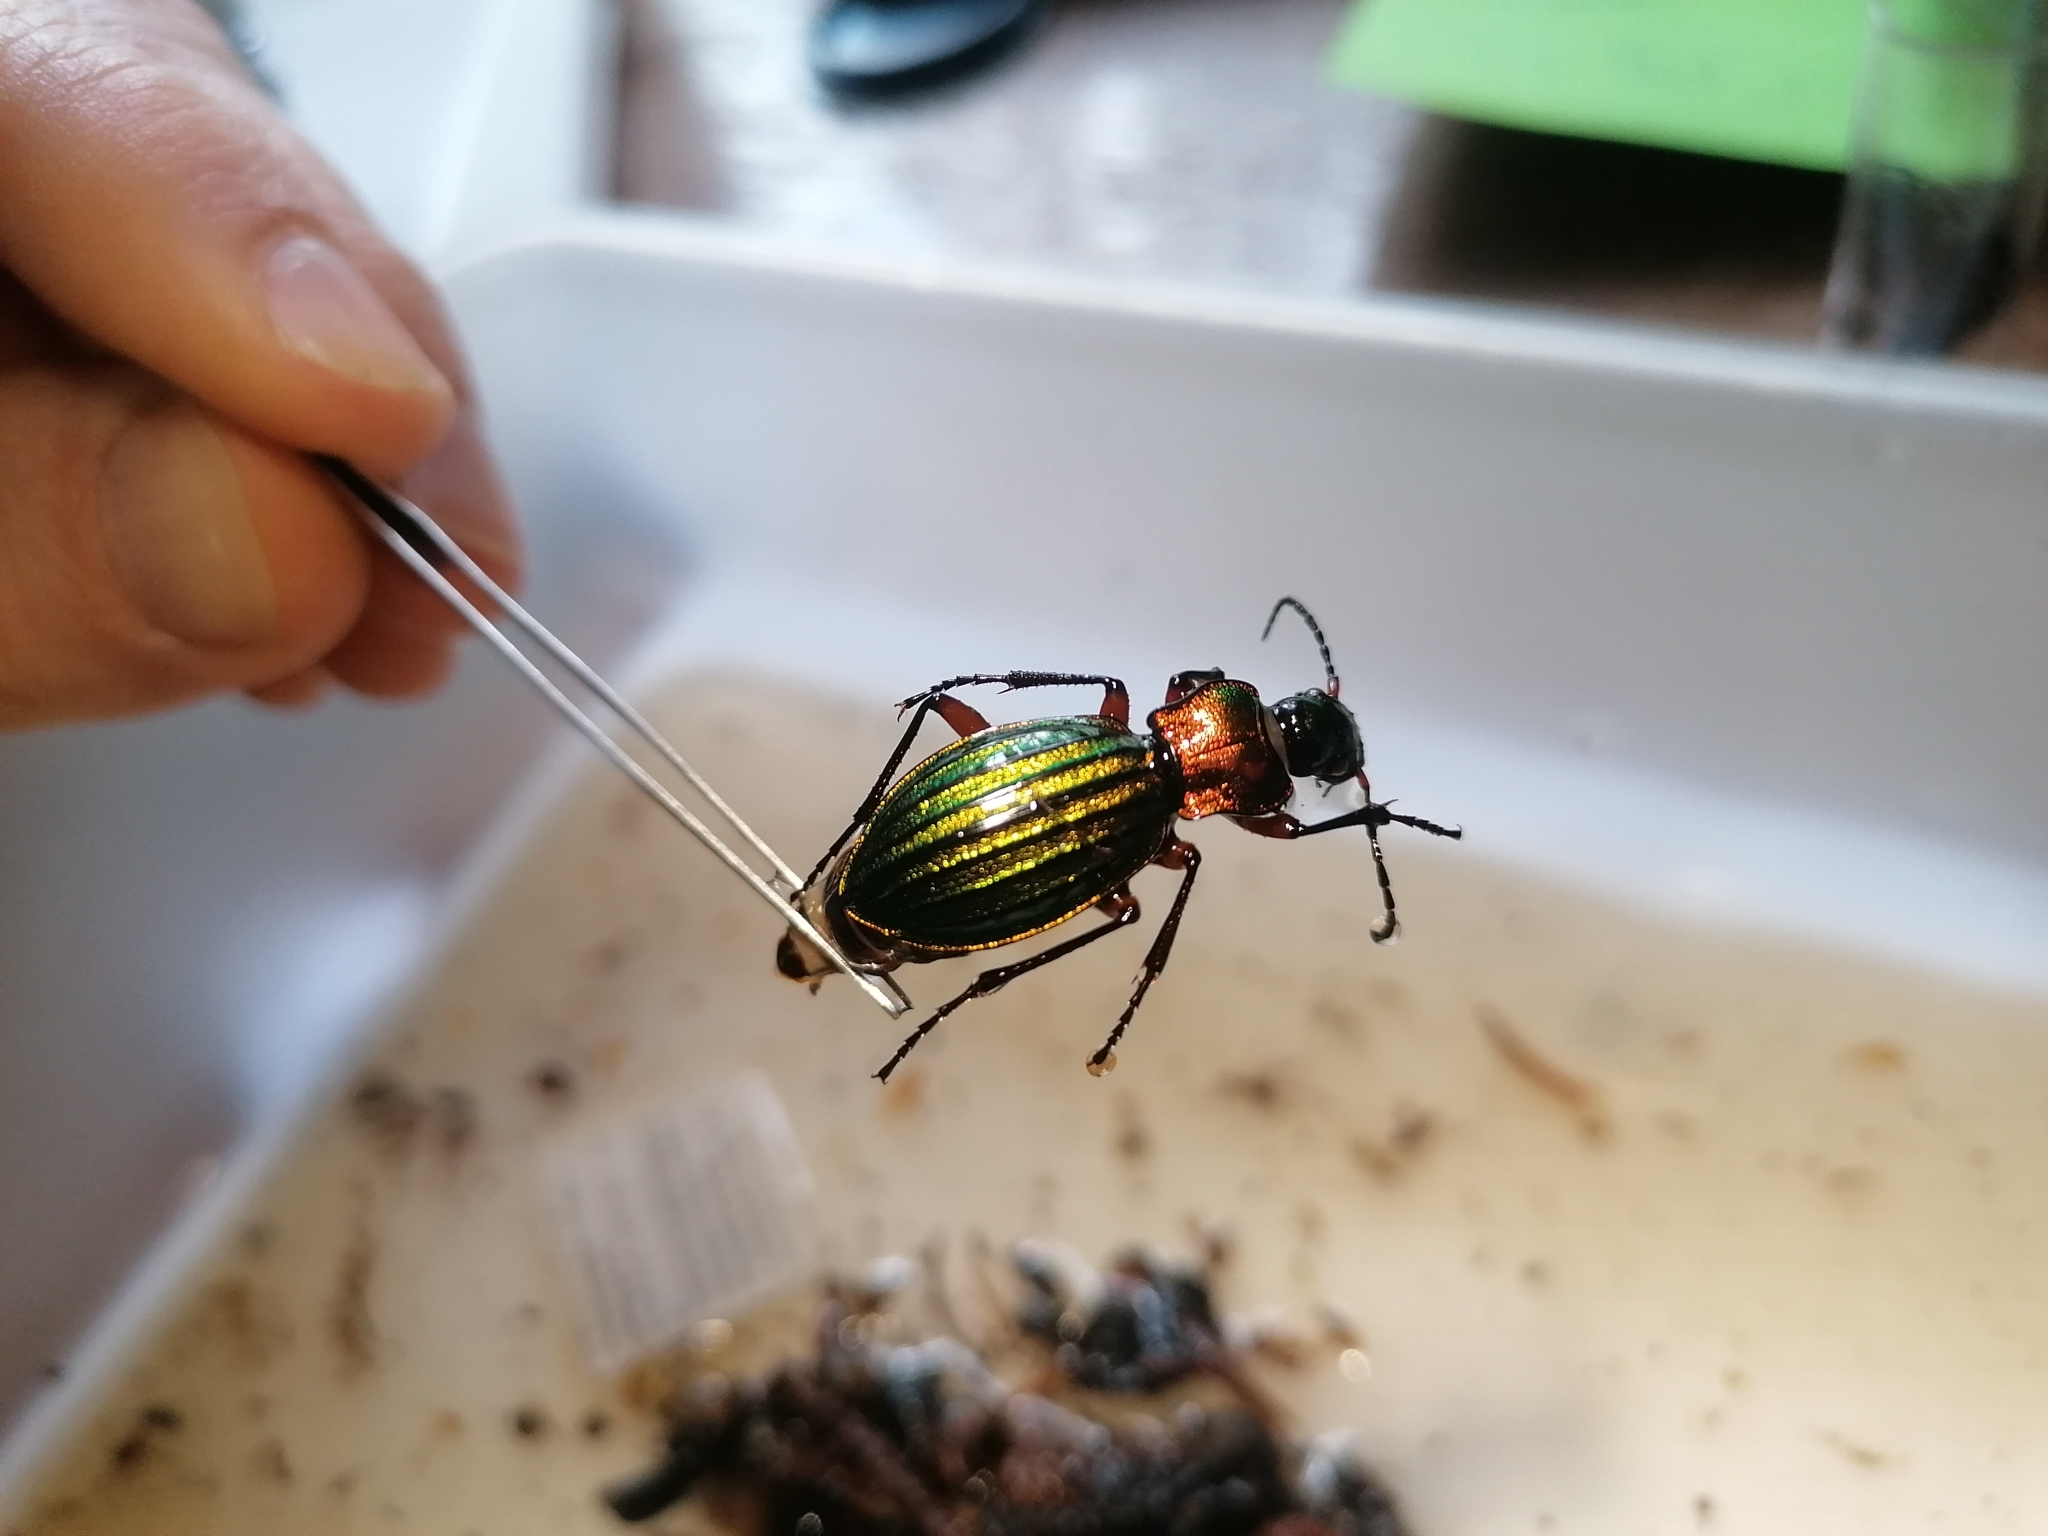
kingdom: Animalia
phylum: Arthropoda
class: Insecta
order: Coleoptera
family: Carabidae
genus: Carabus
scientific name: Carabus auronitens
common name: Carabus auronitens
